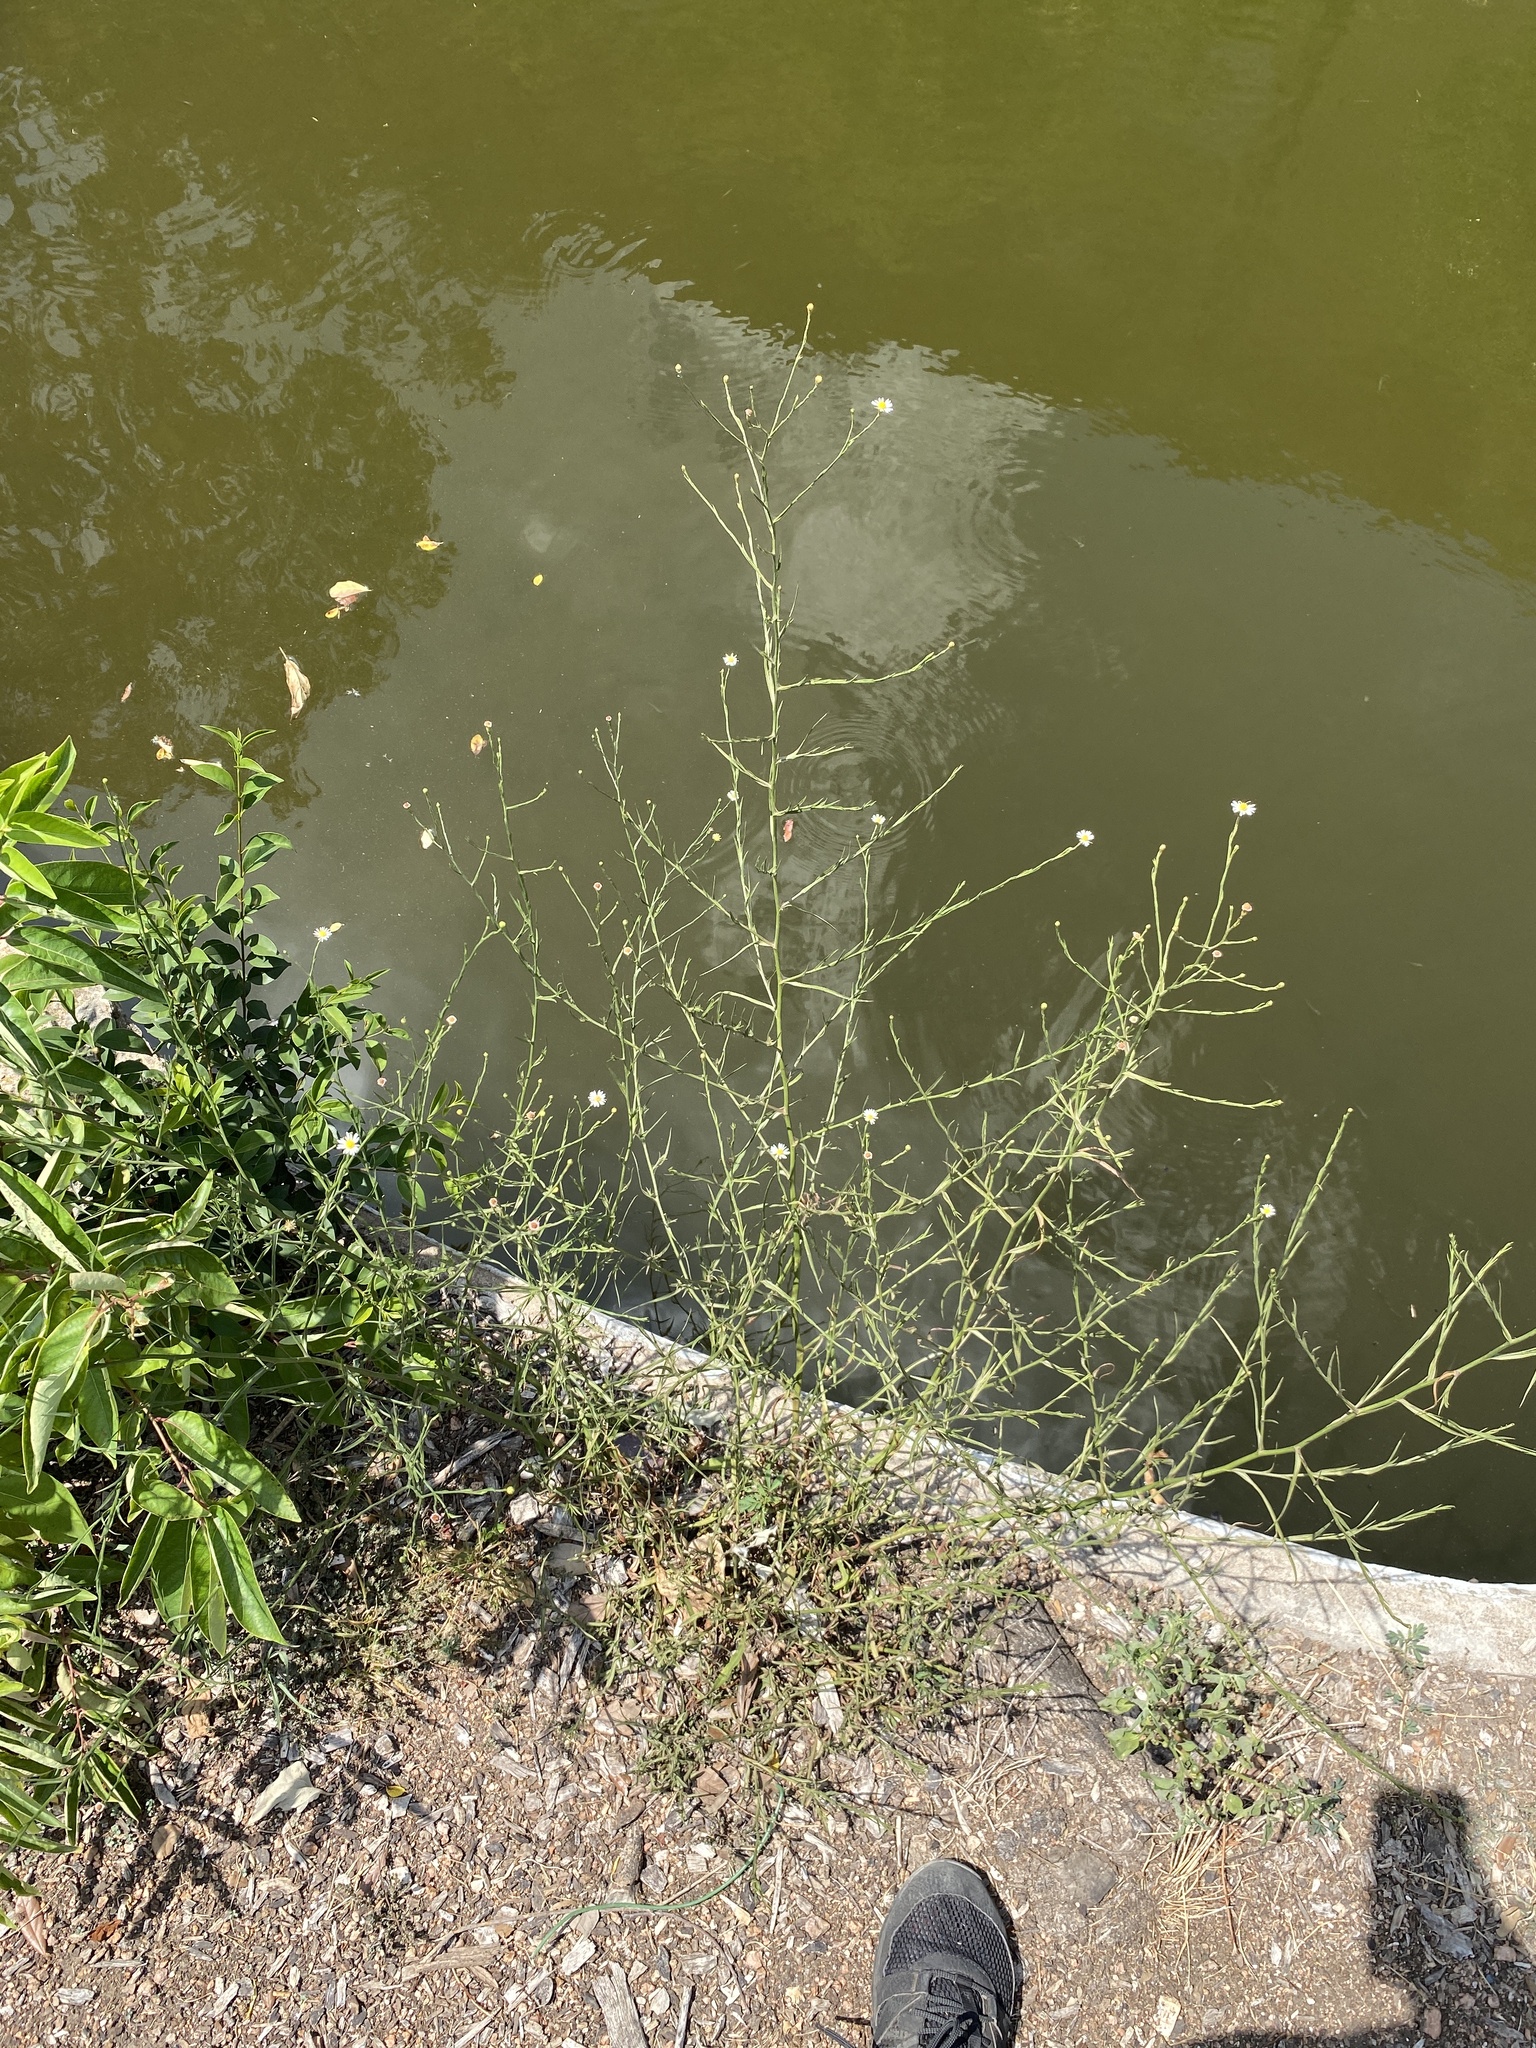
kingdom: Plantae
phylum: Tracheophyta
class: Magnoliopsida
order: Asterales
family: Asteraceae
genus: Symphyotrichum
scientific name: Symphyotrichum divaricatum
